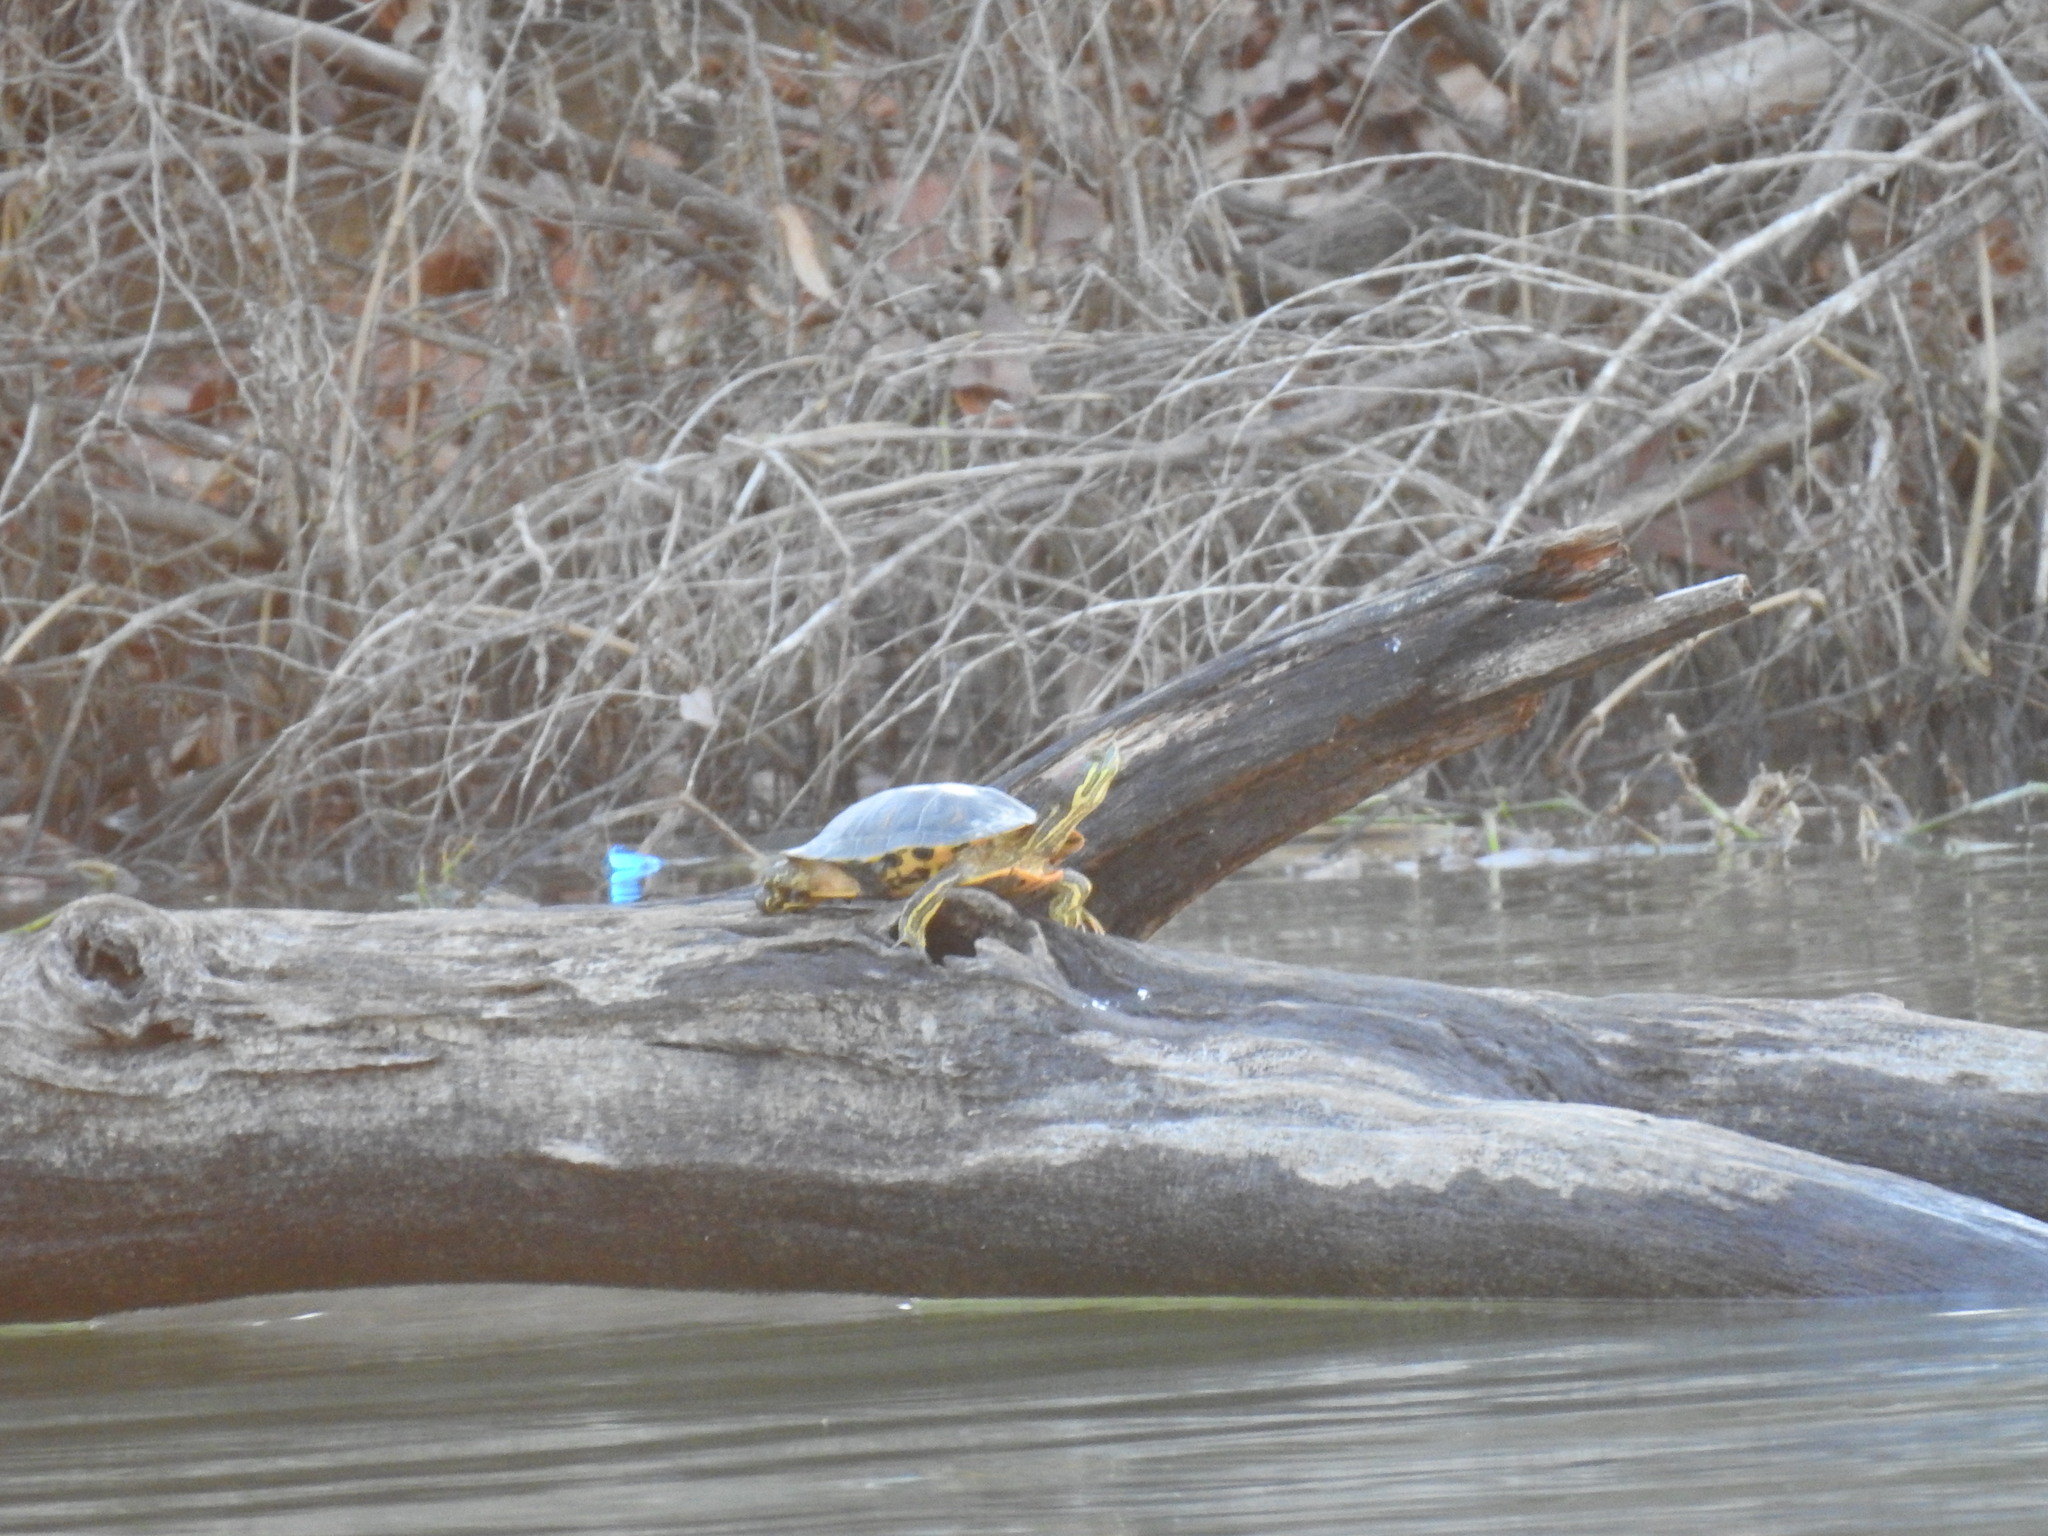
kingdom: Animalia
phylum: Chordata
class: Testudines
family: Emydidae
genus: Trachemys
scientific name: Trachemys scripta
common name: Slider
